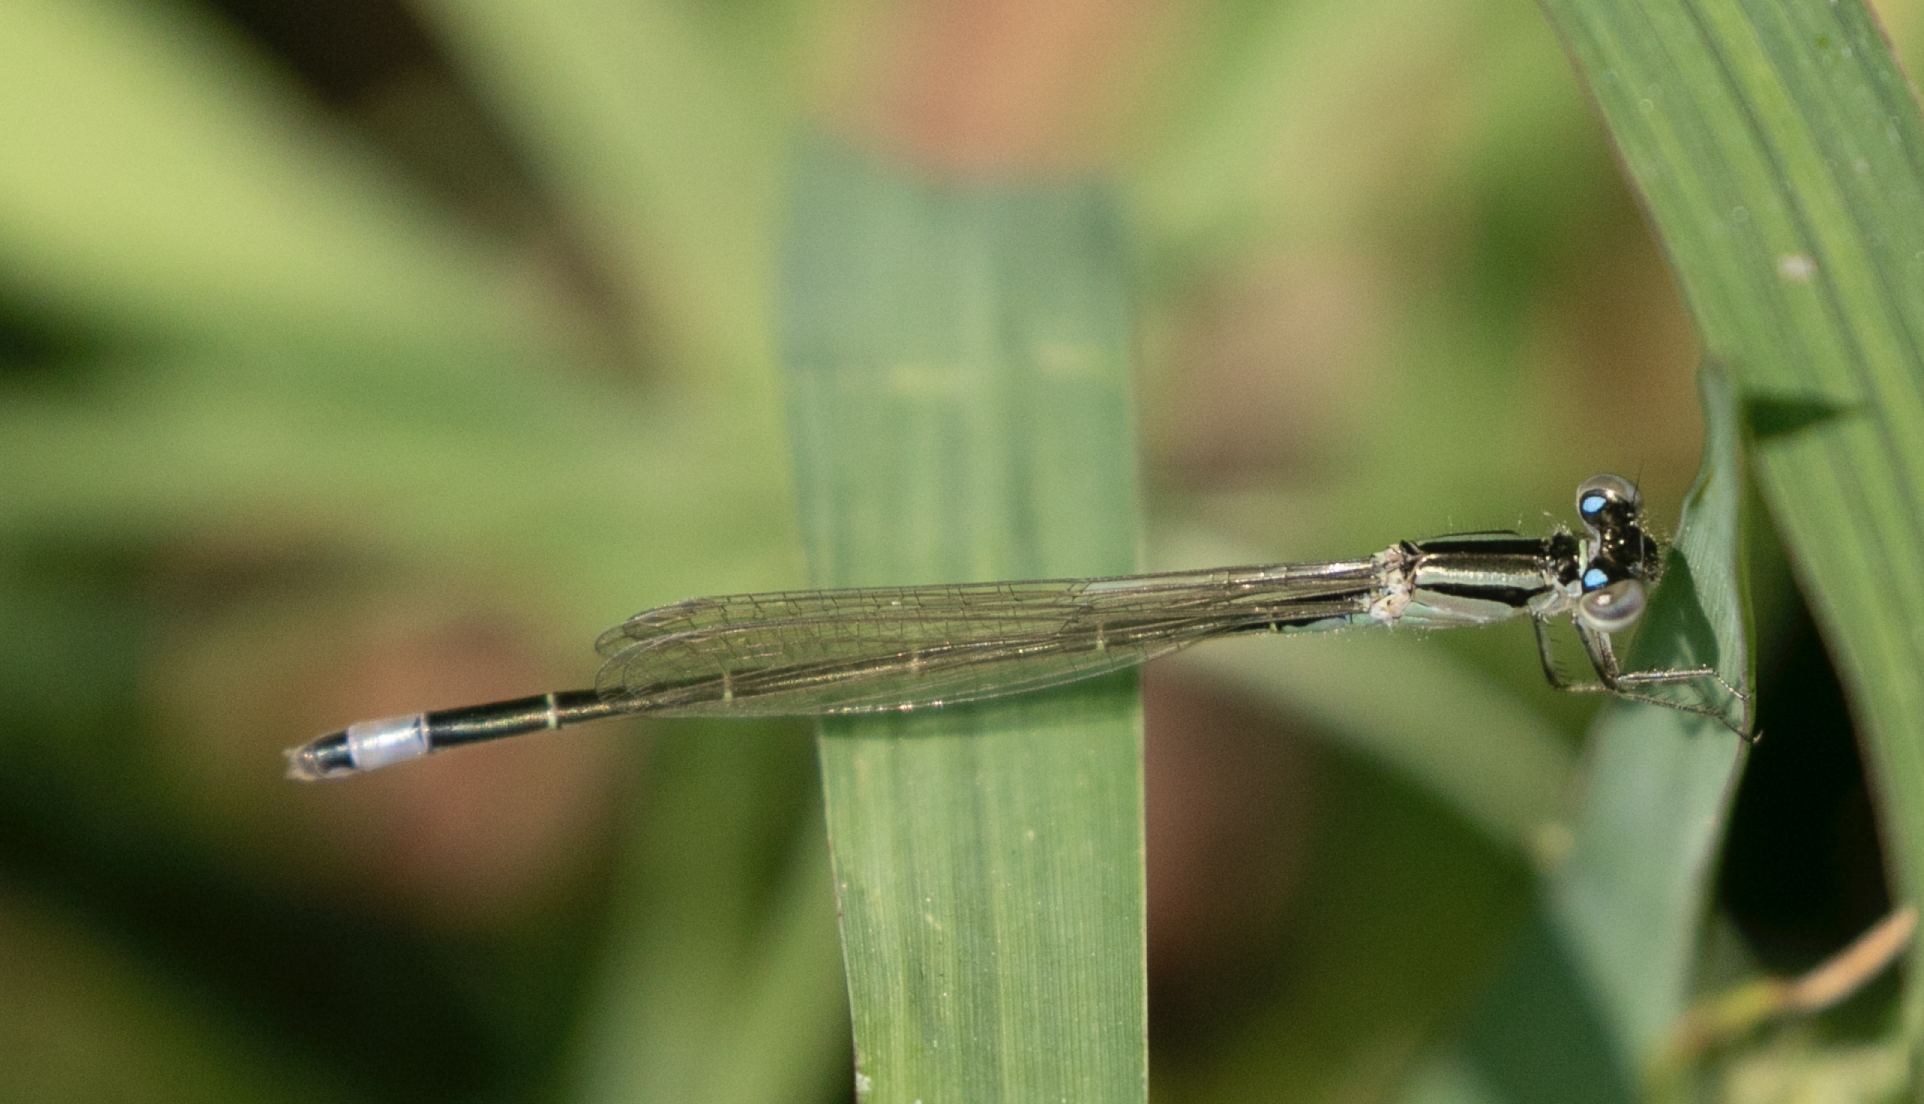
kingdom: Animalia
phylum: Arthropoda
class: Insecta
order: Odonata
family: Coenagrionidae
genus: Ischnura
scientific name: Ischnura elegans
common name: Blue-tailed damselfly
